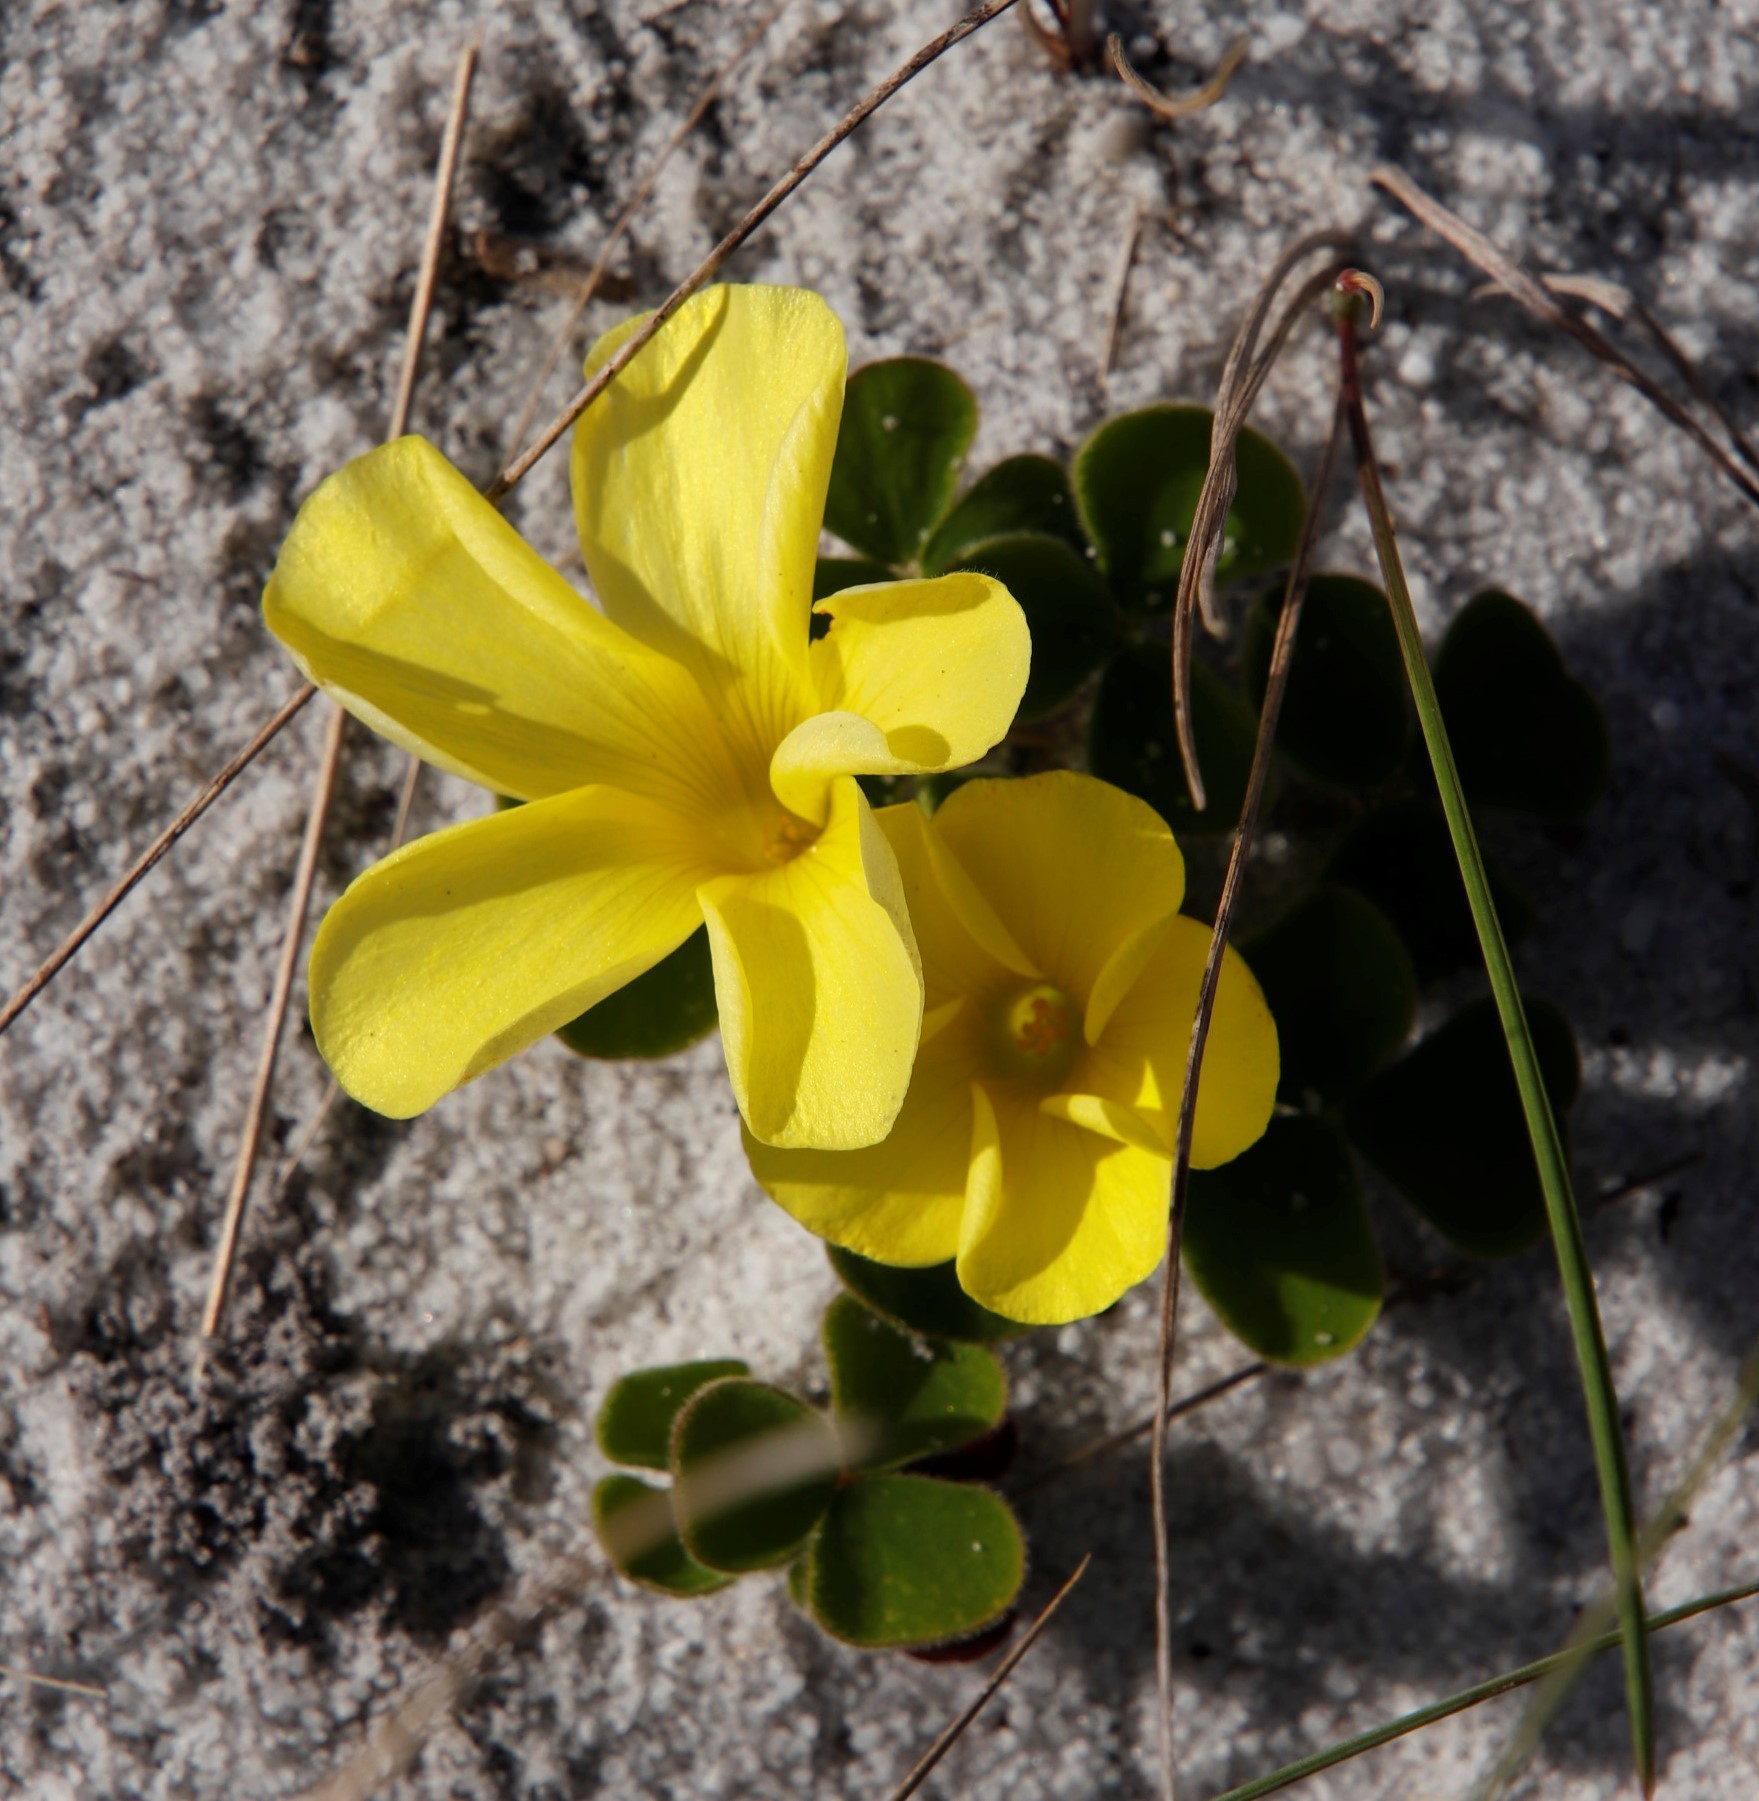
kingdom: Plantae
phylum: Tracheophyta
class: Magnoliopsida
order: Oxalidales
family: Oxalidaceae
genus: Oxalis
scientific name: Oxalis luteola
